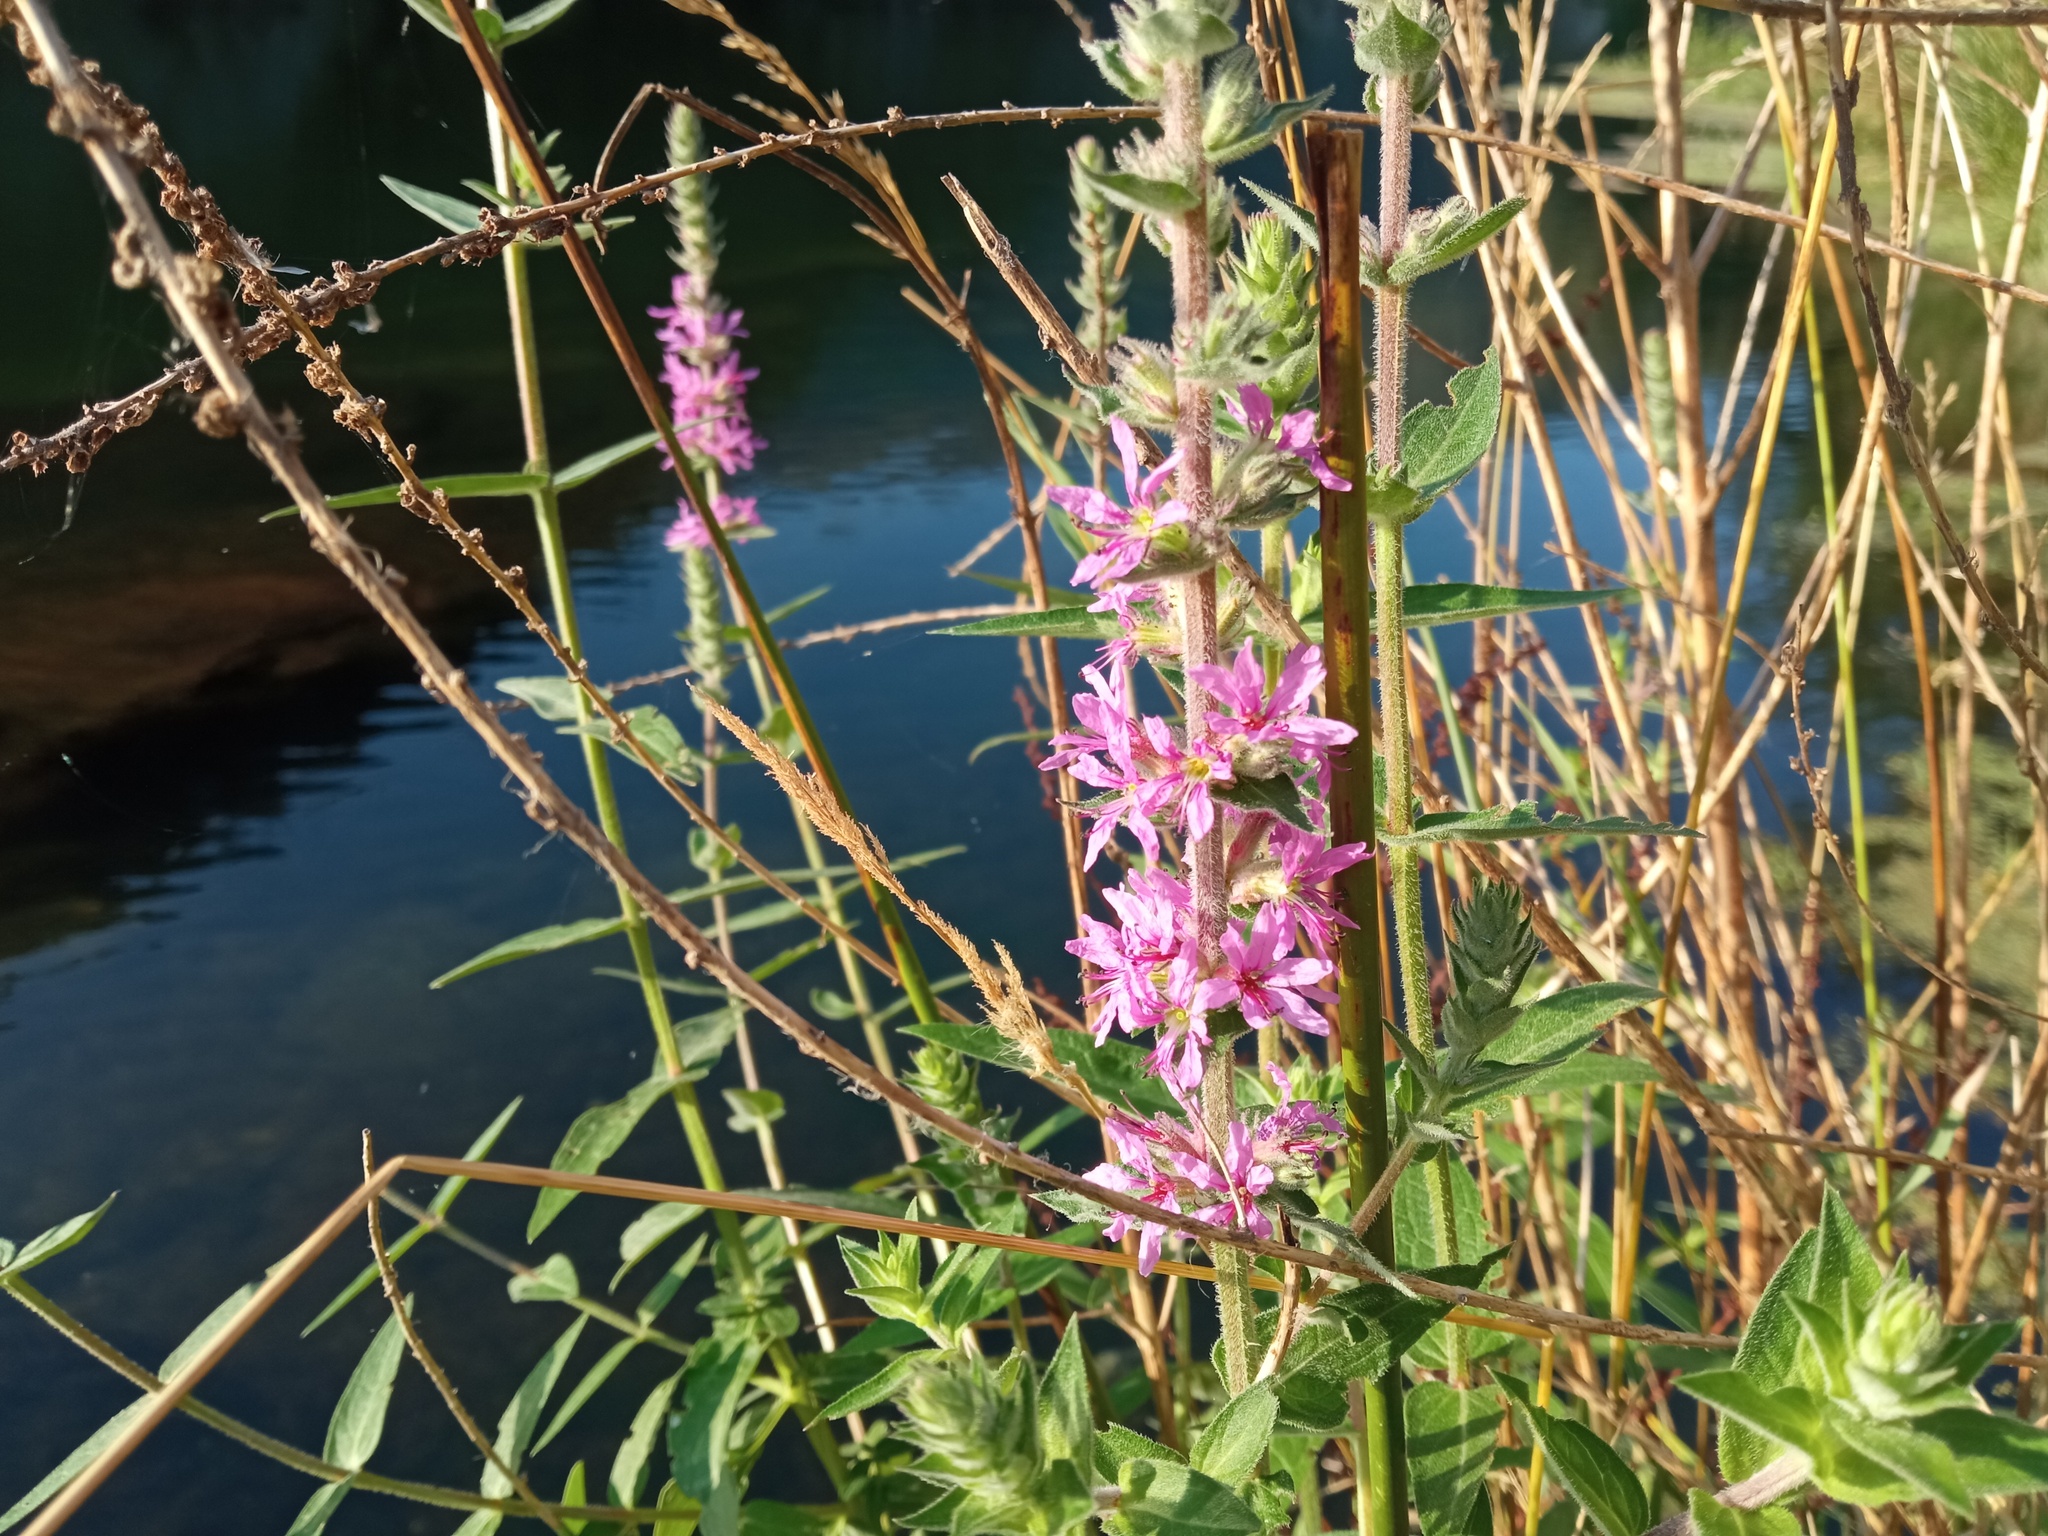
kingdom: Plantae
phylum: Tracheophyta
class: Magnoliopsida
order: Myrtales
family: Lythraceae
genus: Lythrum
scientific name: Lythrum salicaria
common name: Purple loosestrife
